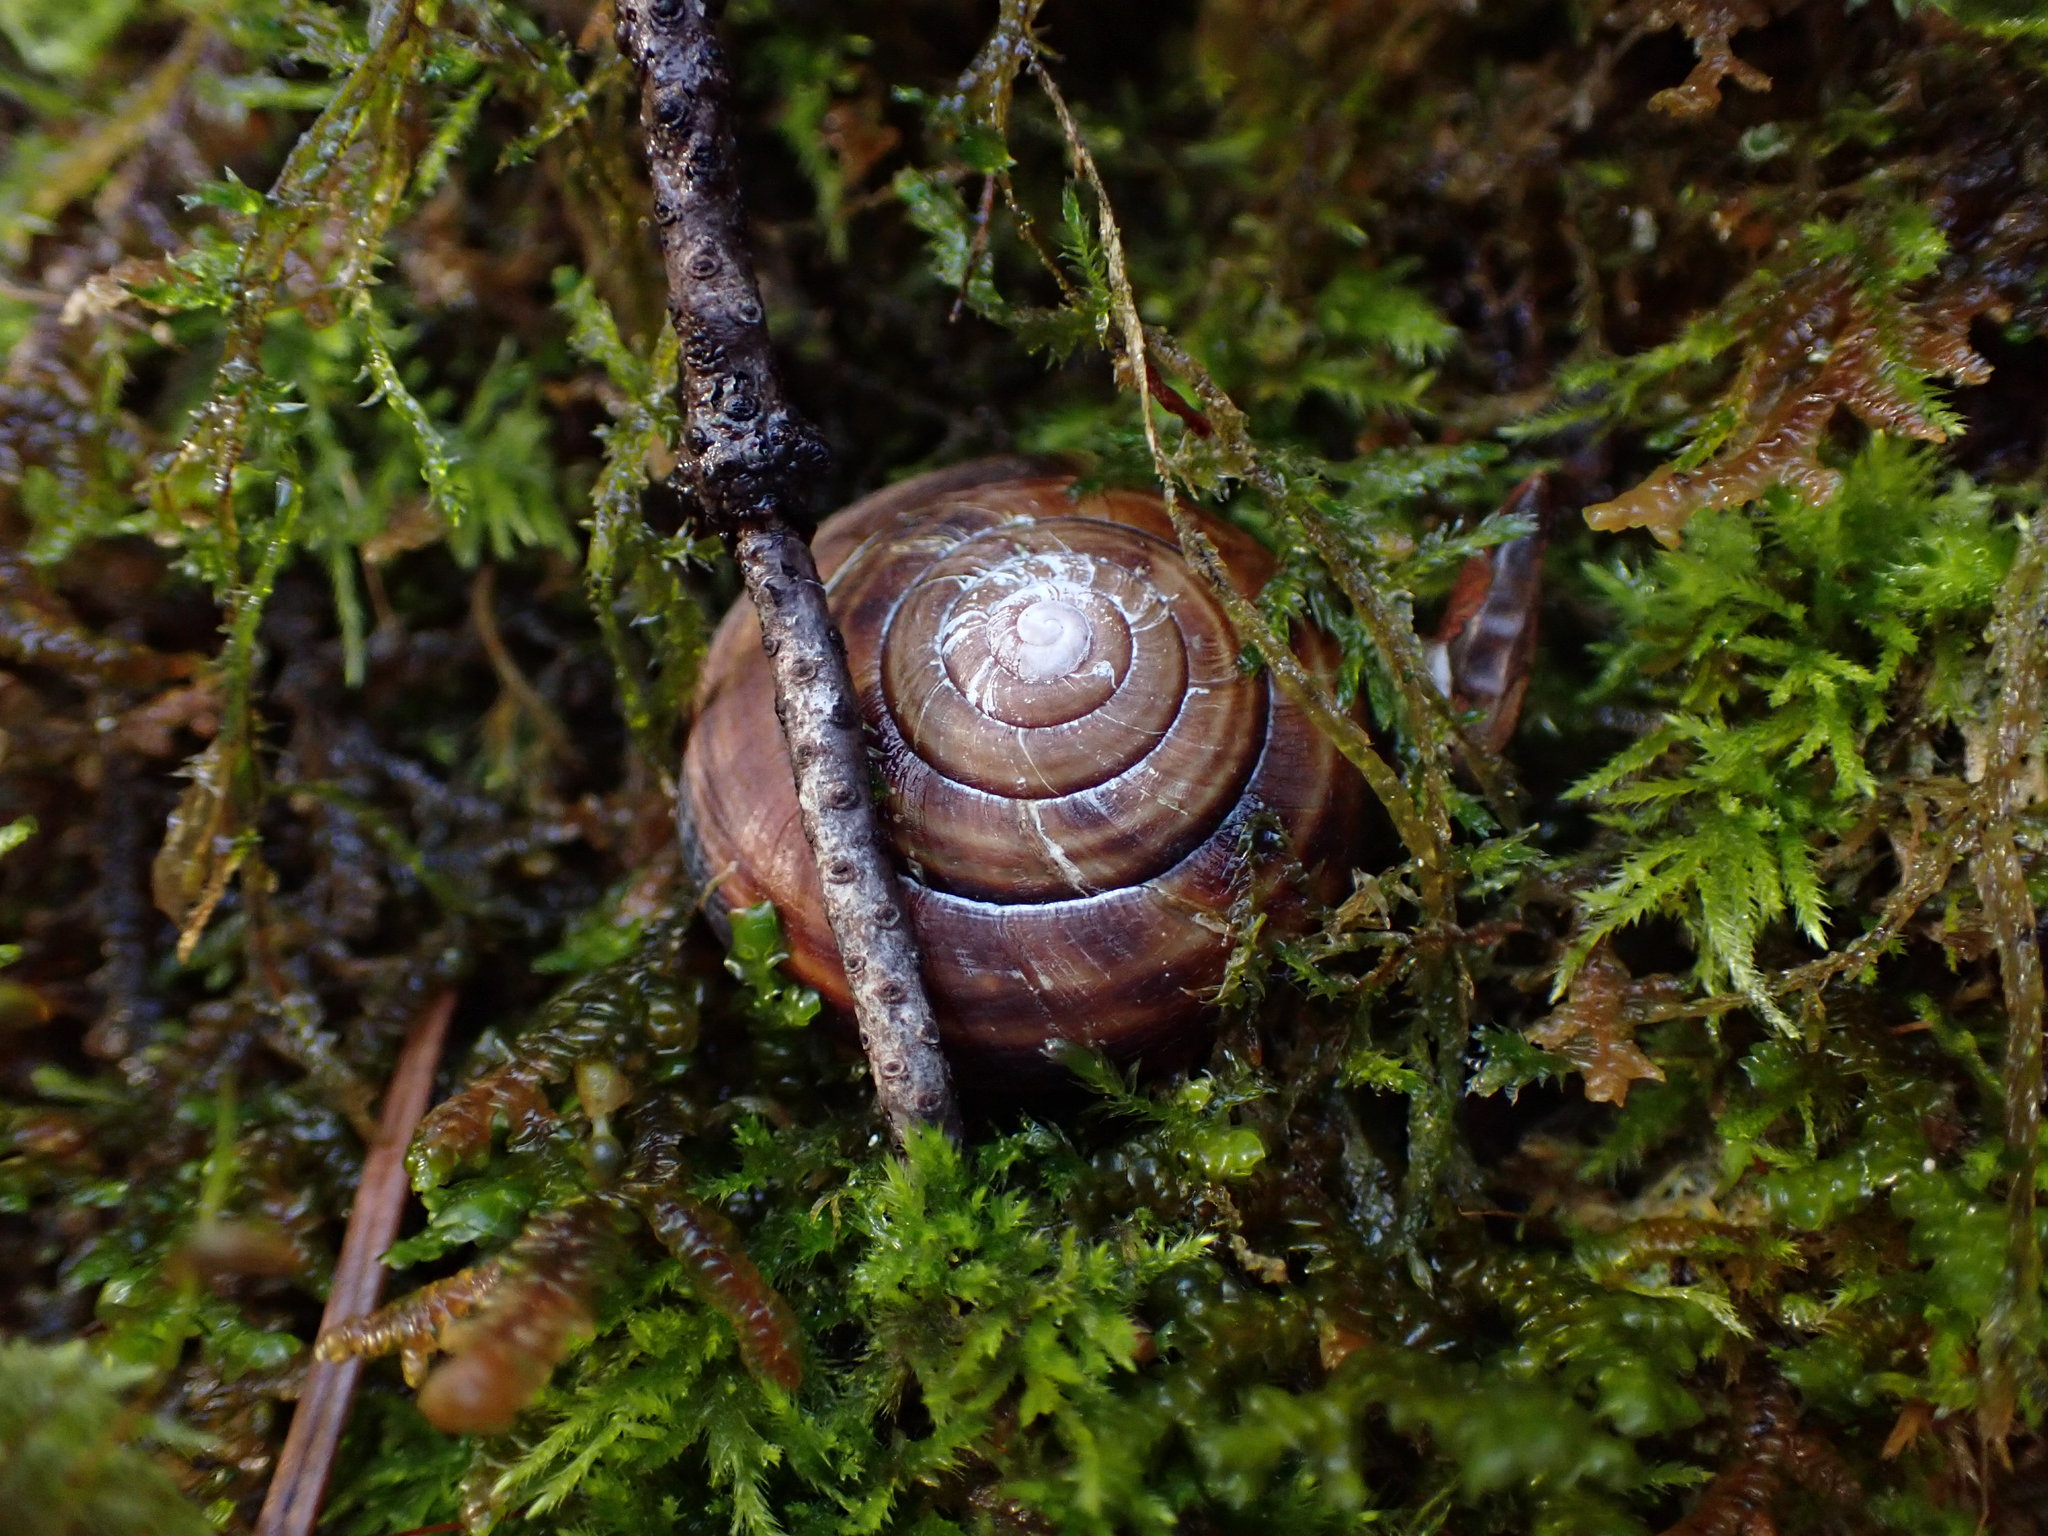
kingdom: Animalia
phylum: Mollusca
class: Gastropoda
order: Stylommatophora
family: Xanthonychidae
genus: Monadenia
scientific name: Monadenia fidelis
